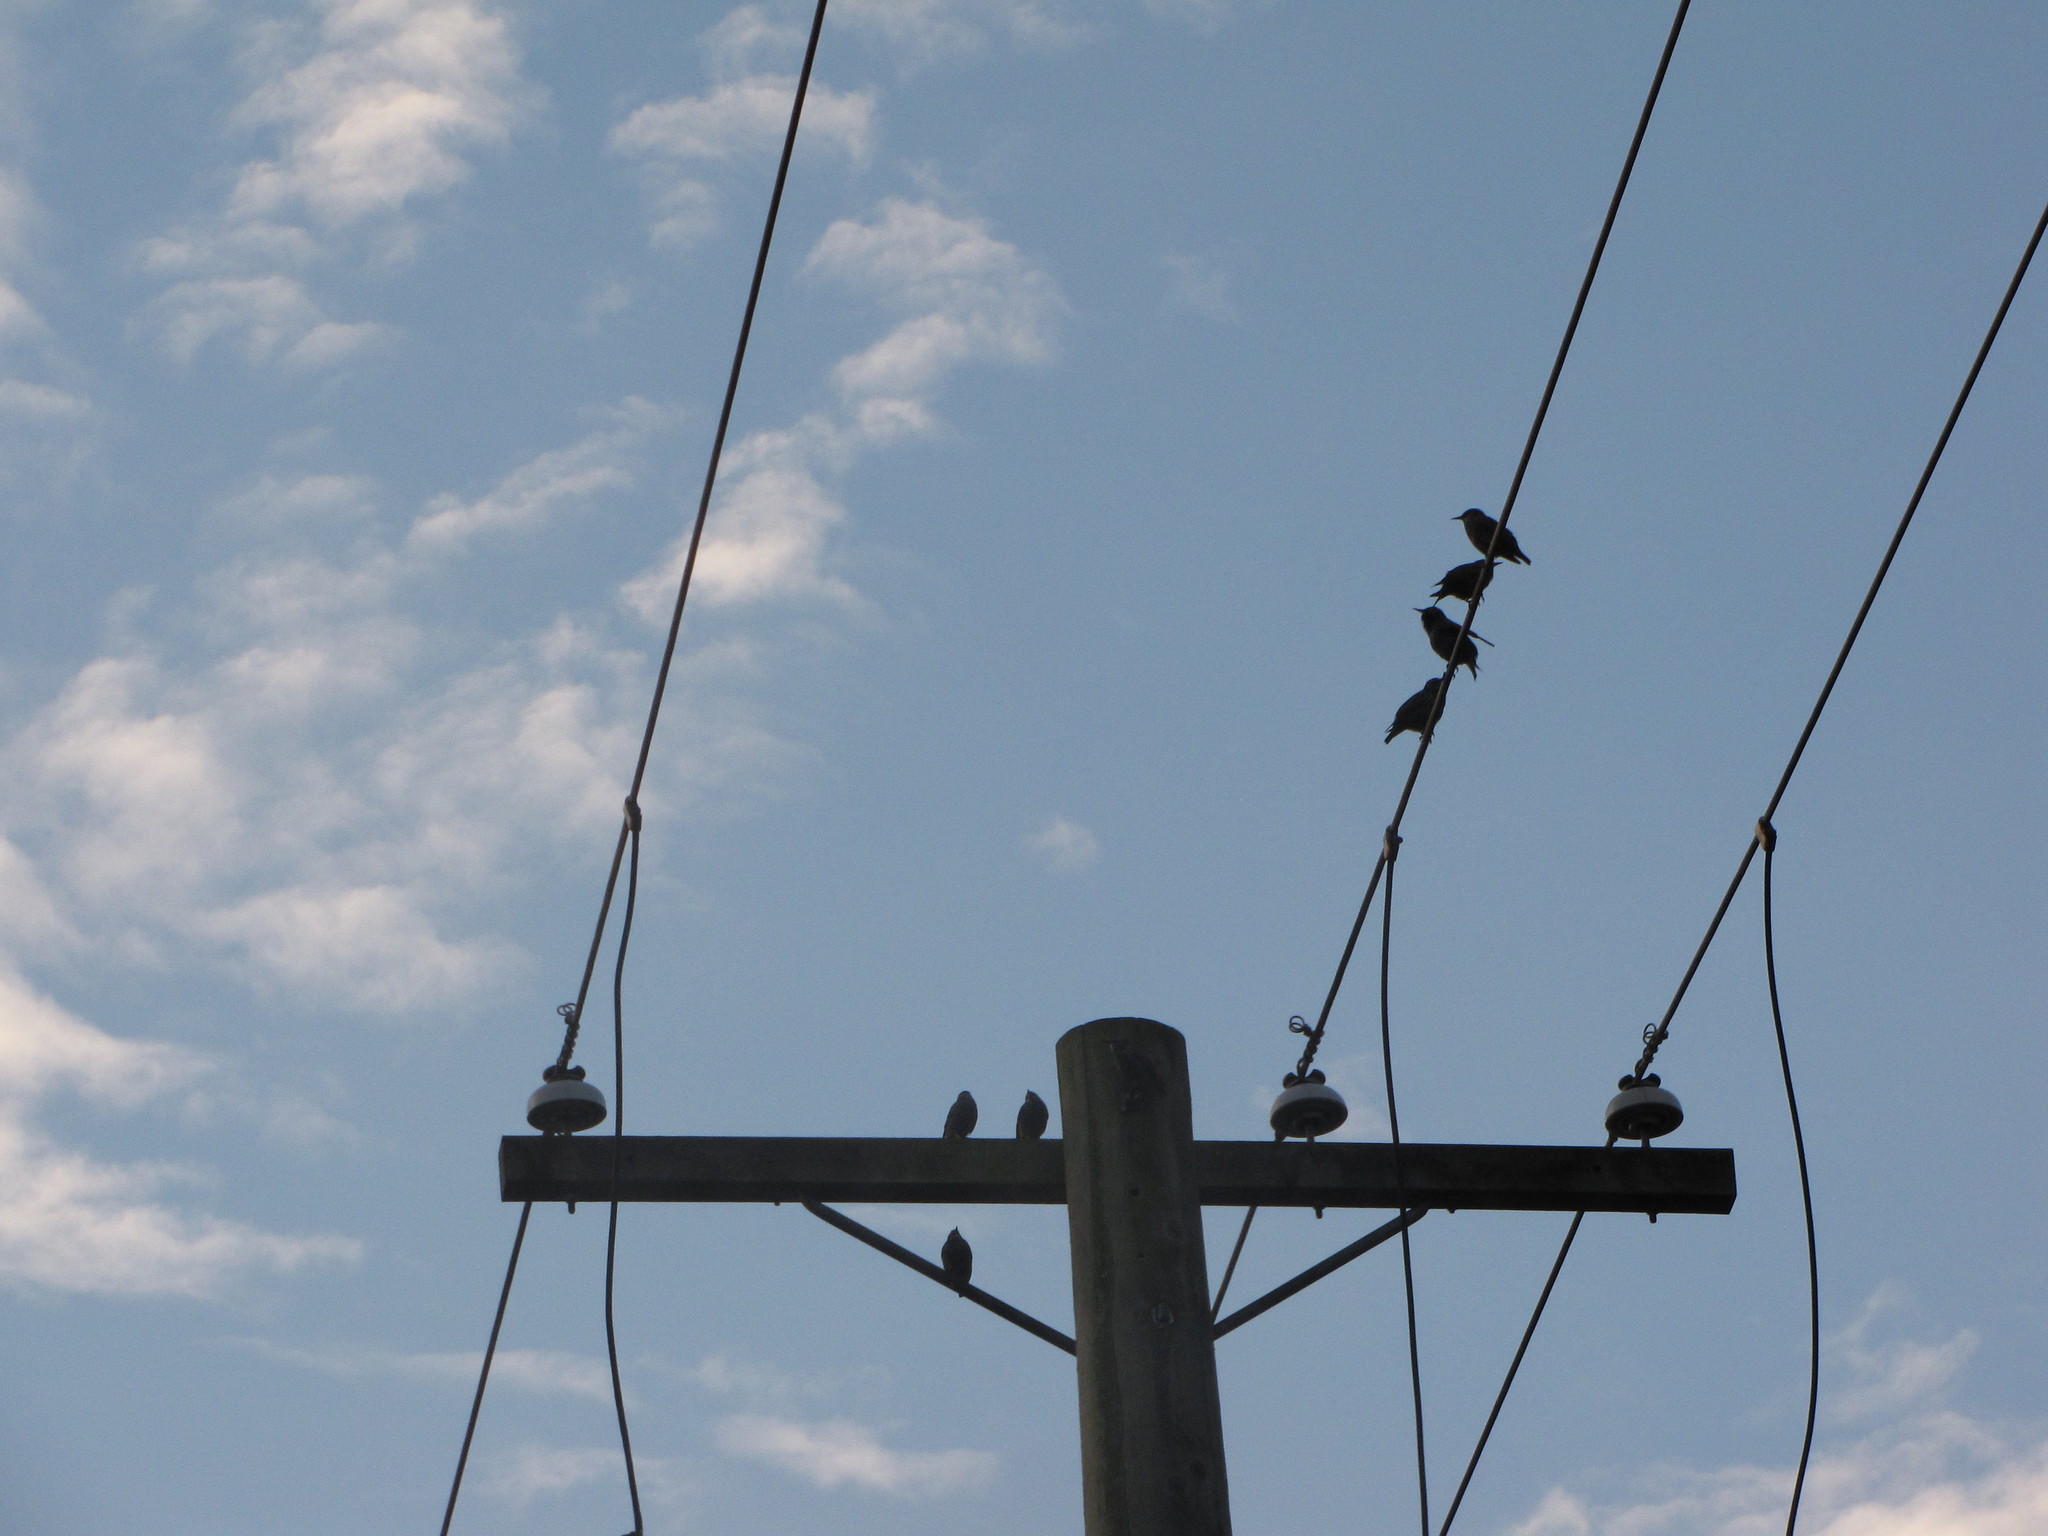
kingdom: Animalia
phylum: Chordata
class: Aves
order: Passeriformes
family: Sturnidae
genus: Sturnus
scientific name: Sturnus vulgaris
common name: Common starling
